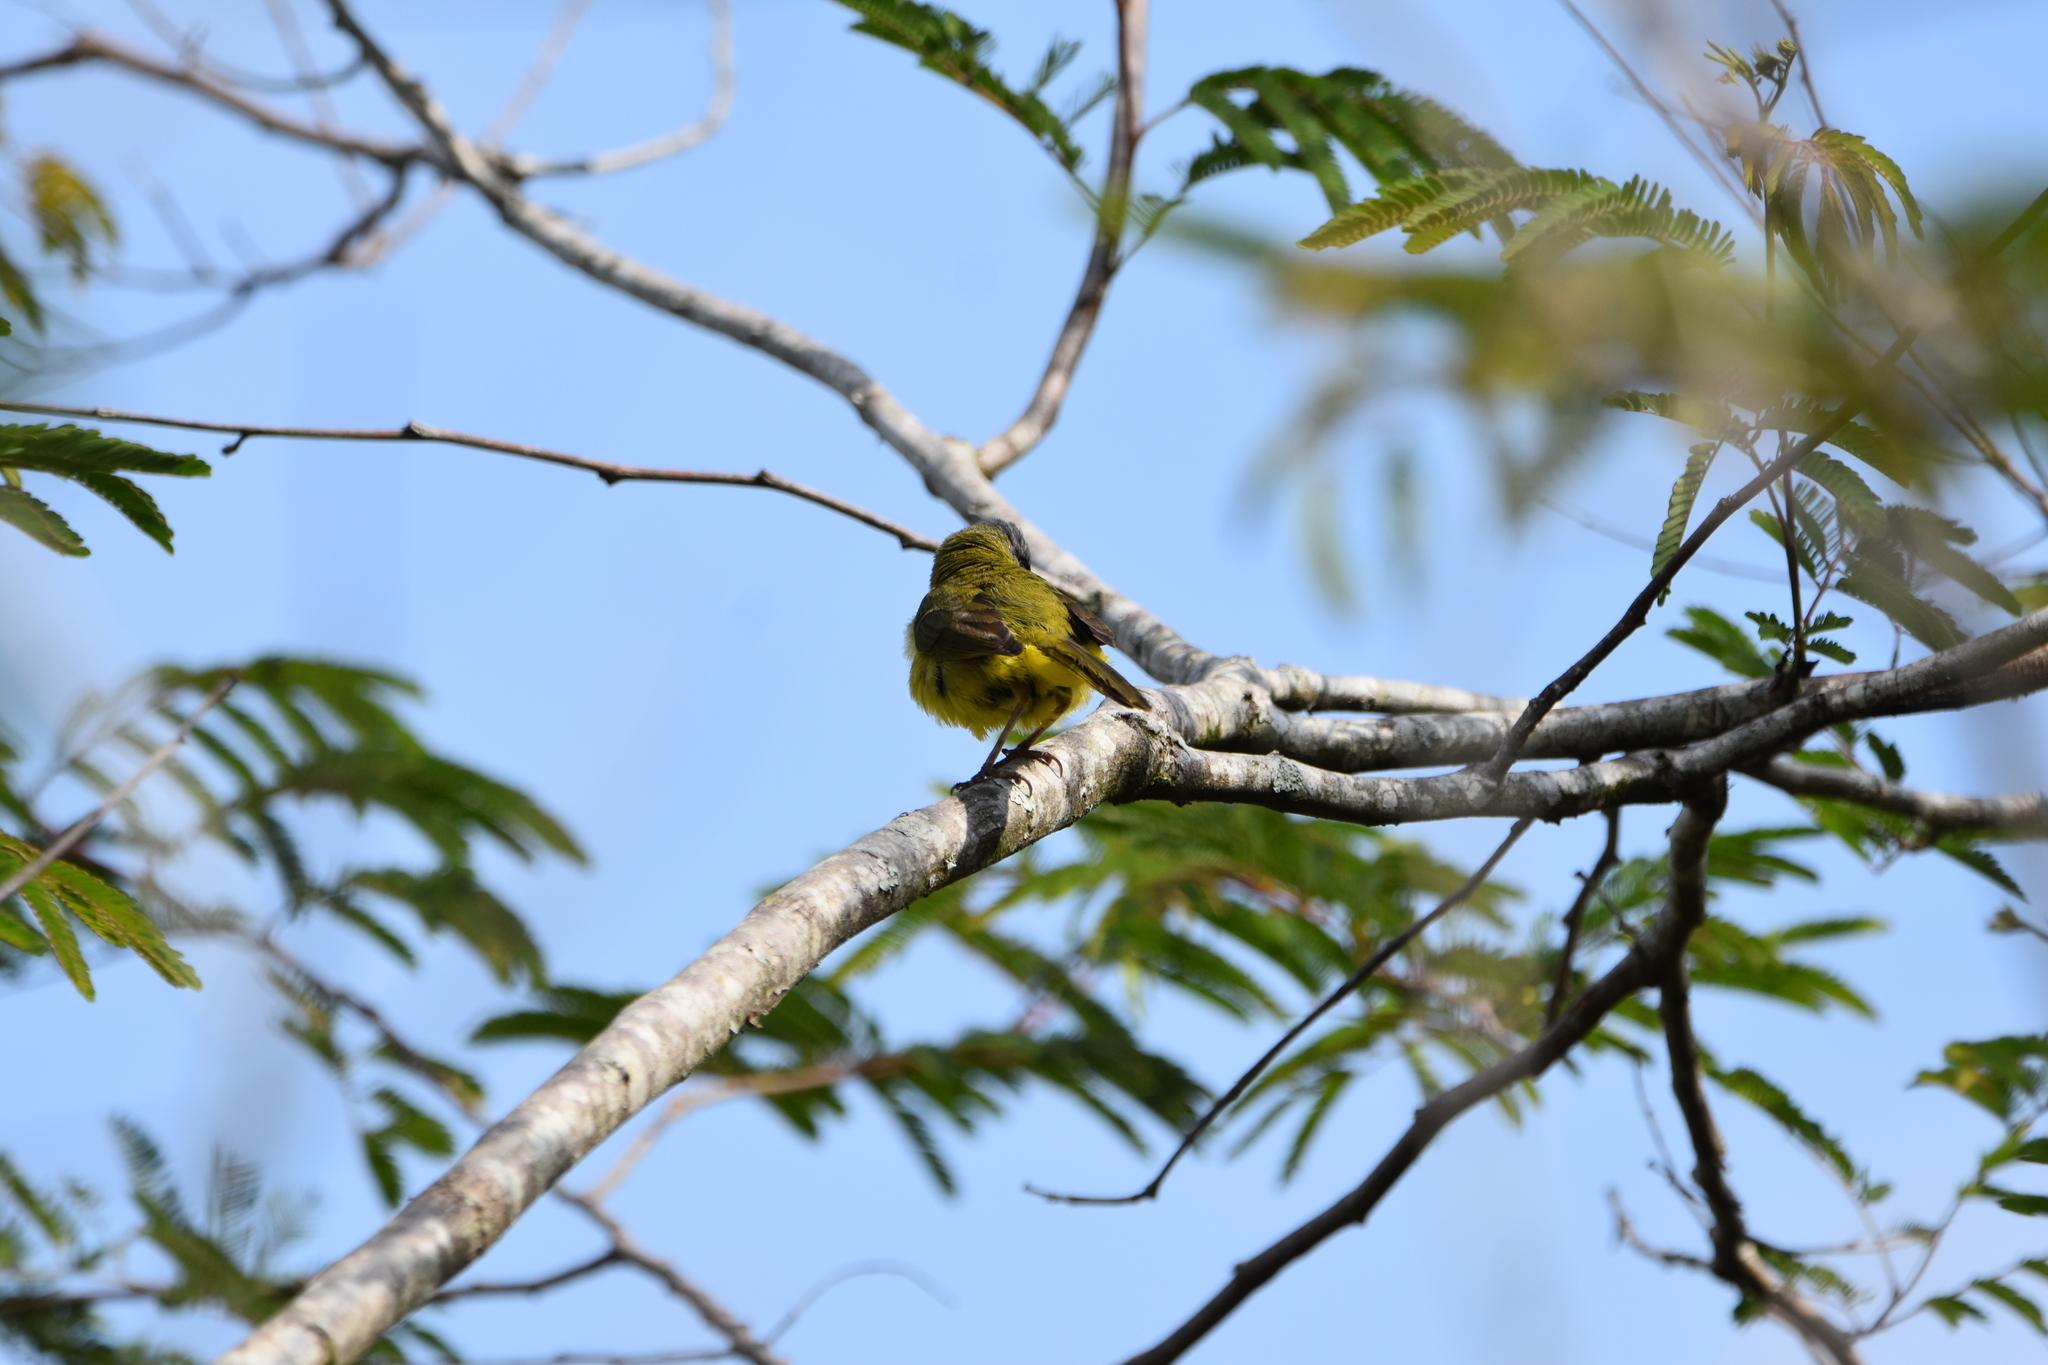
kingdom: Animalia
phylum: Chordata
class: Aves
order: Passeriformes
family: Parulidae
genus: Geothlypis
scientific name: Geothlypis velata
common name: Southern yellowthroat
